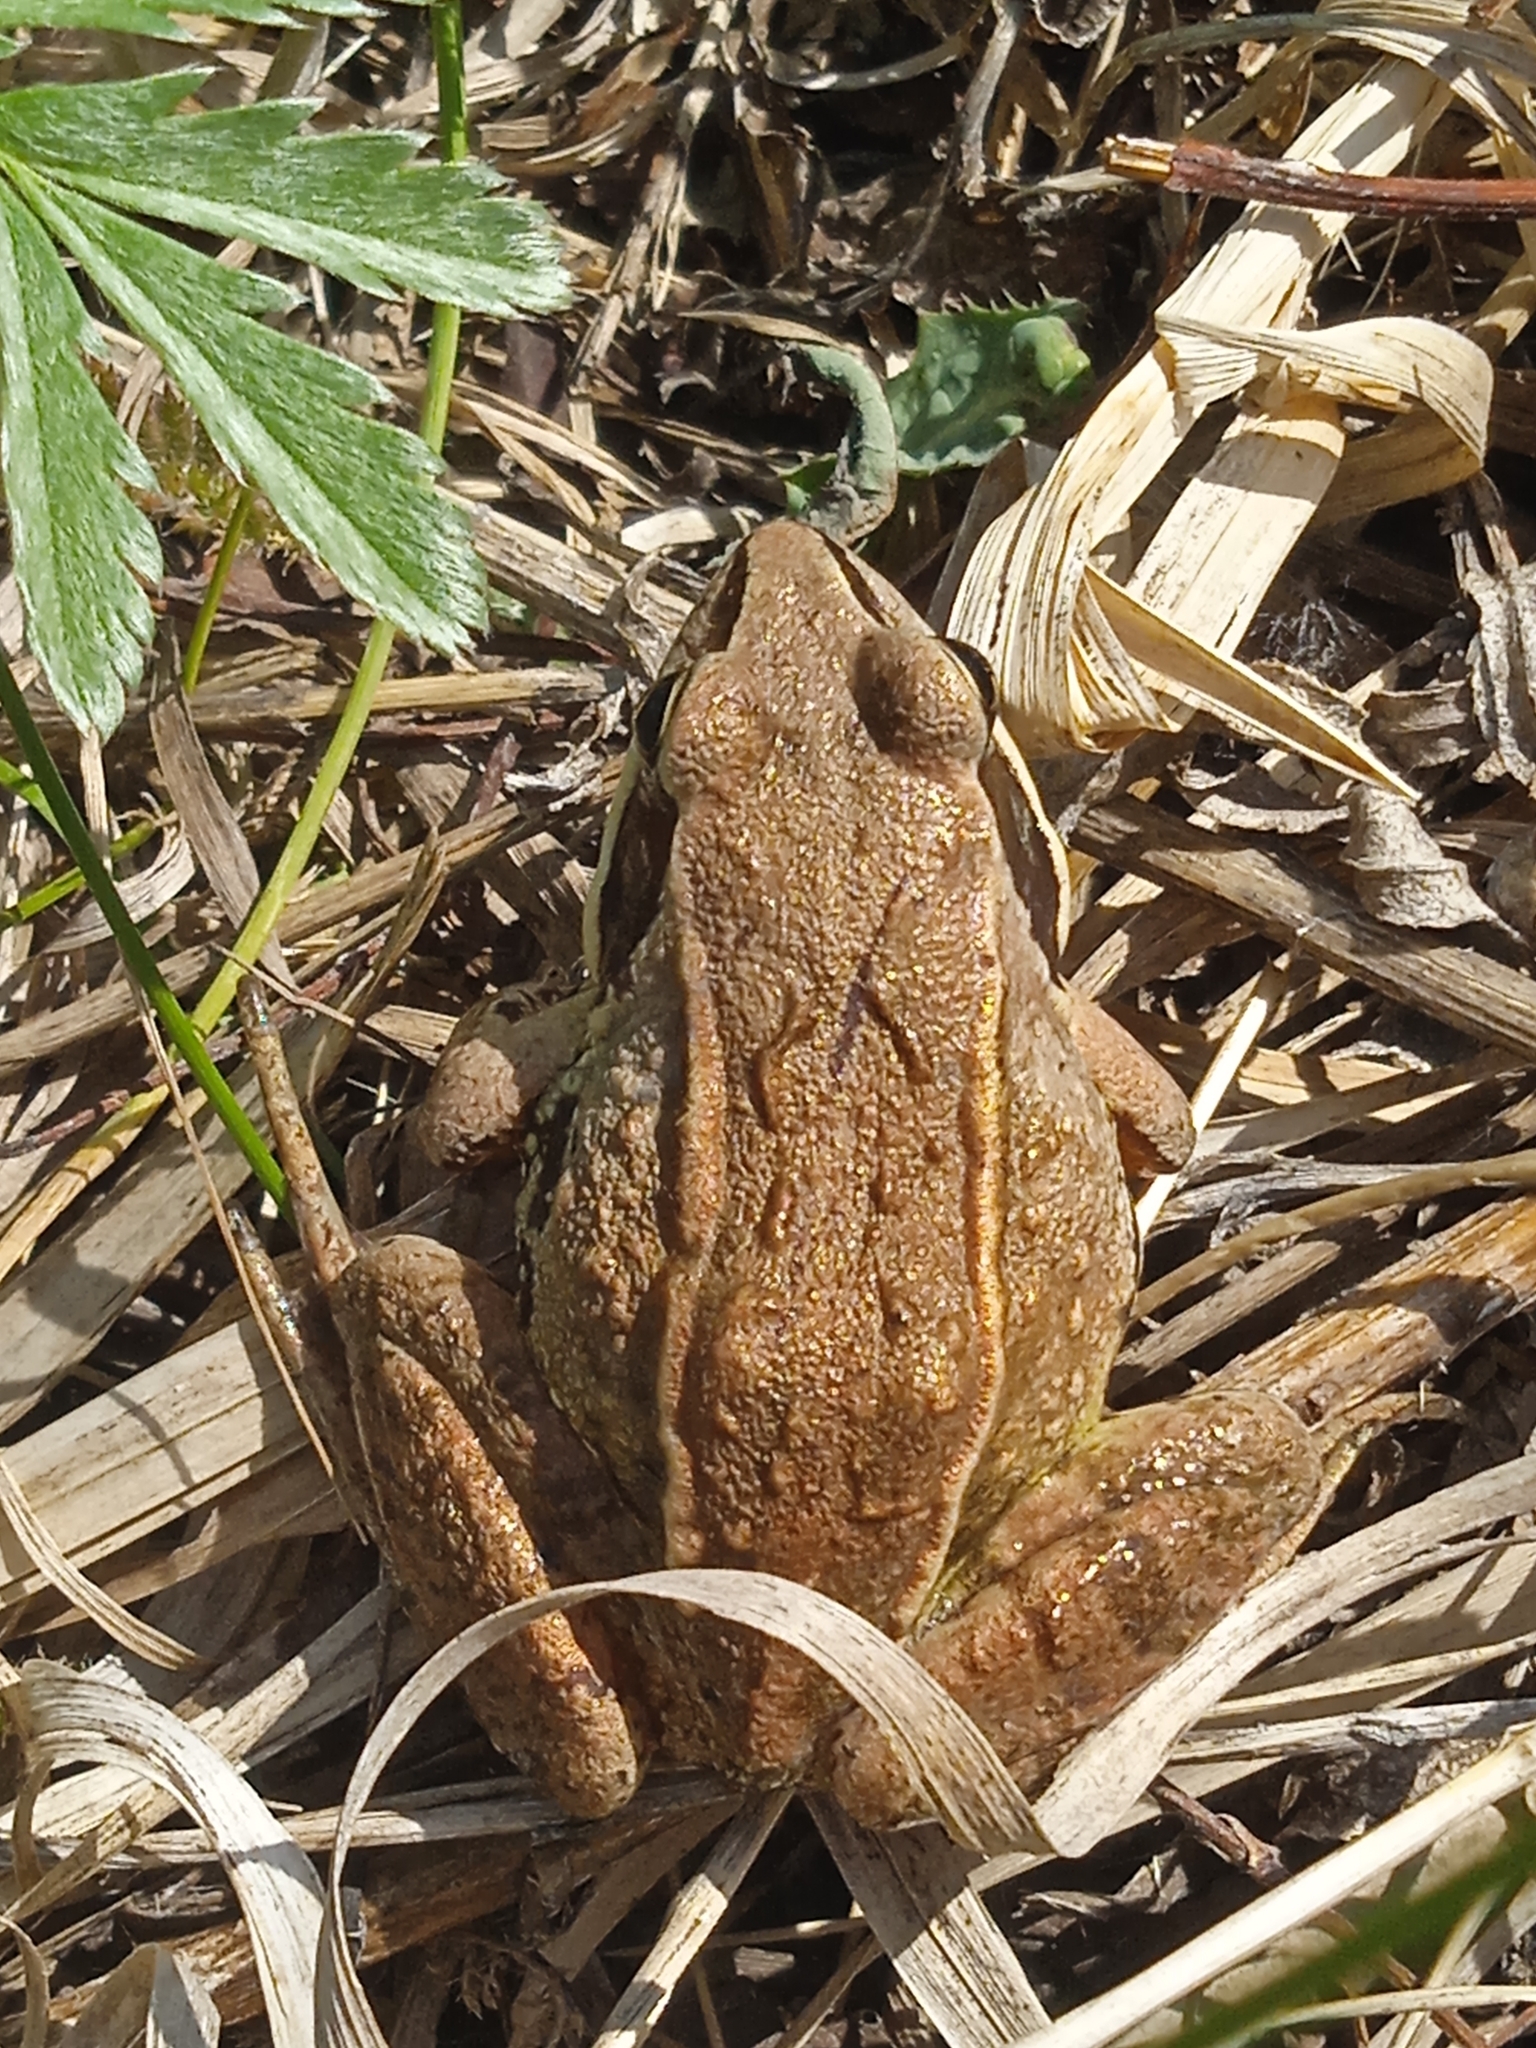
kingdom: Animalia
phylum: Chordata
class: Amphibia
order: Anura
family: Ranidae
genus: Rana
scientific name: Rana arvalis
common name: Moor frog
